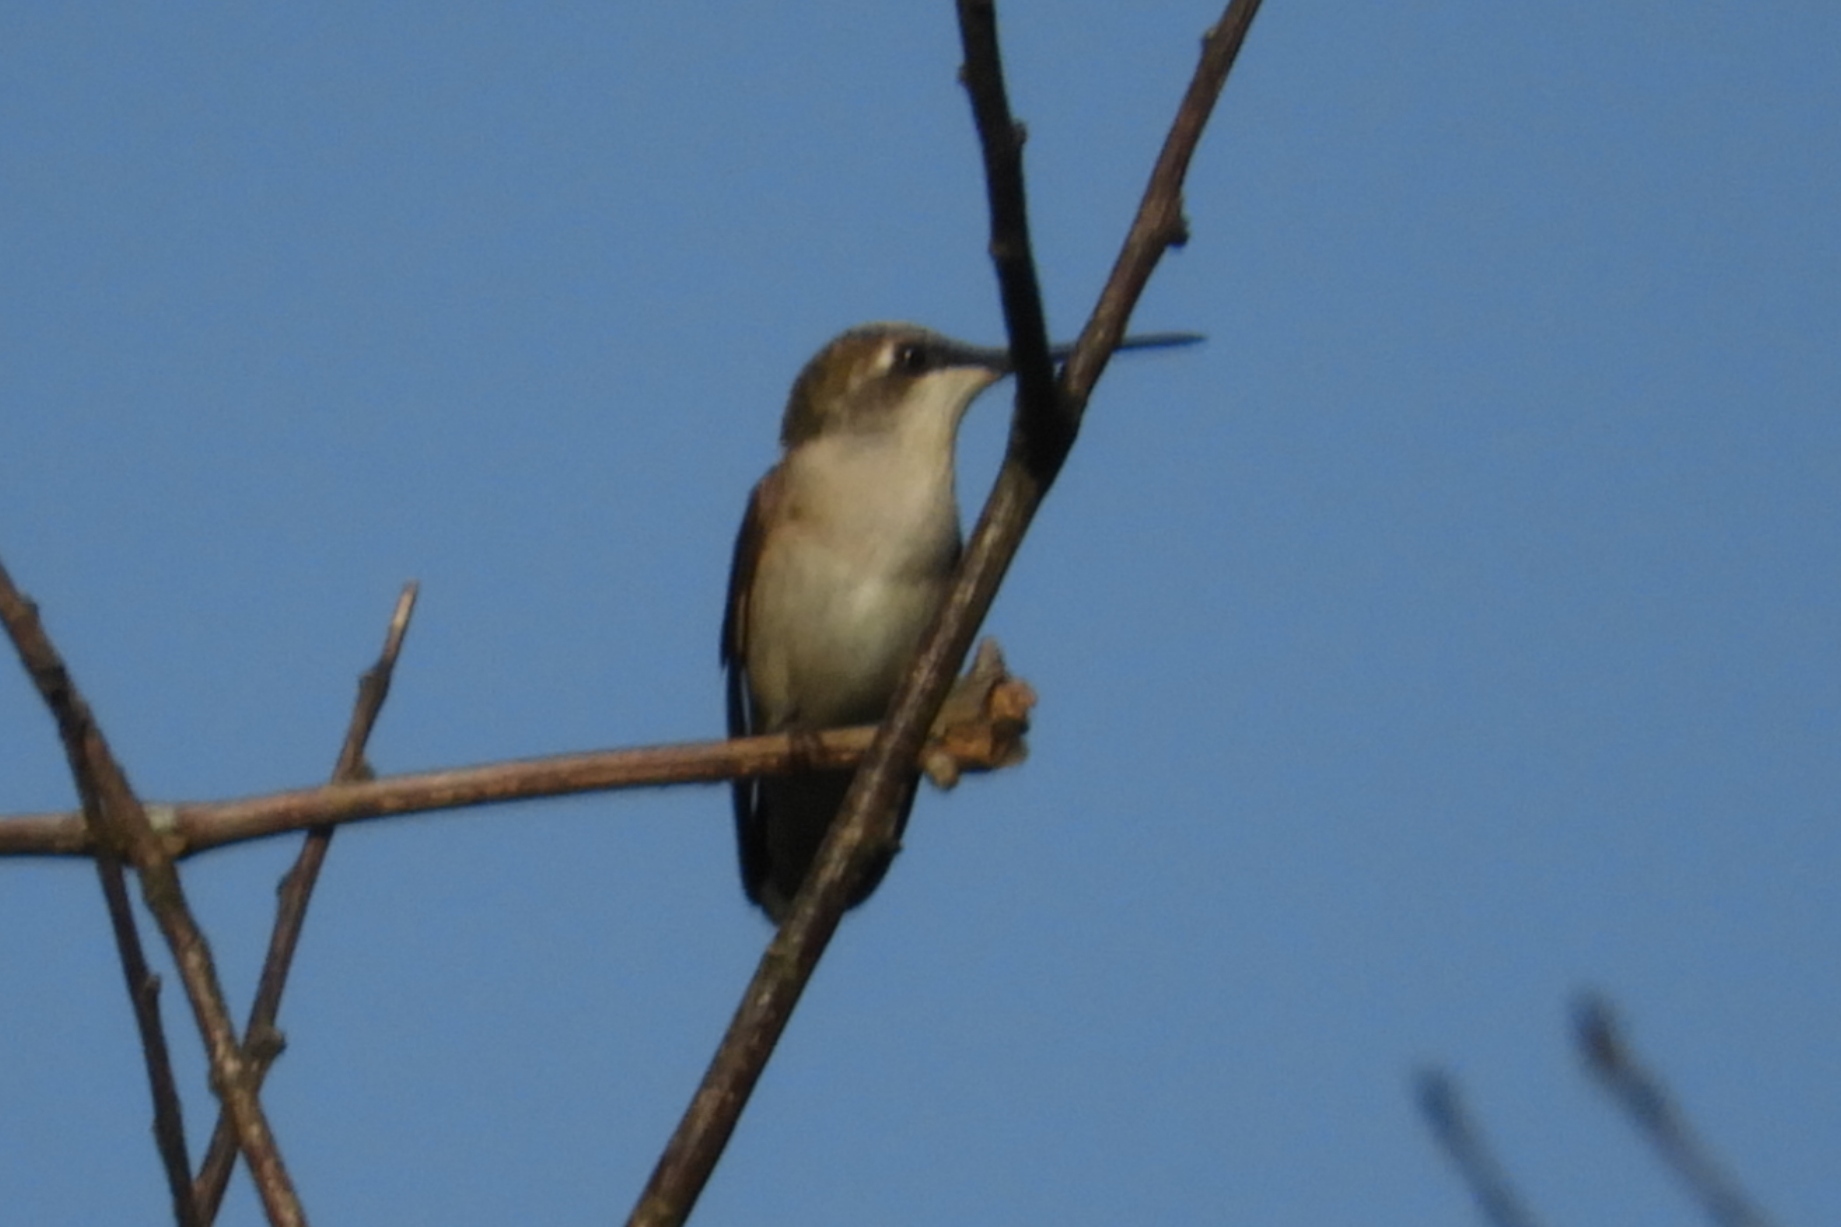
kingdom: Animalia
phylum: Chordata
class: Aves
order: Apodiformes
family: Trochilidae
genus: Archilochus
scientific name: Archilochus colubris
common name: Ruby-throated hummingbird
